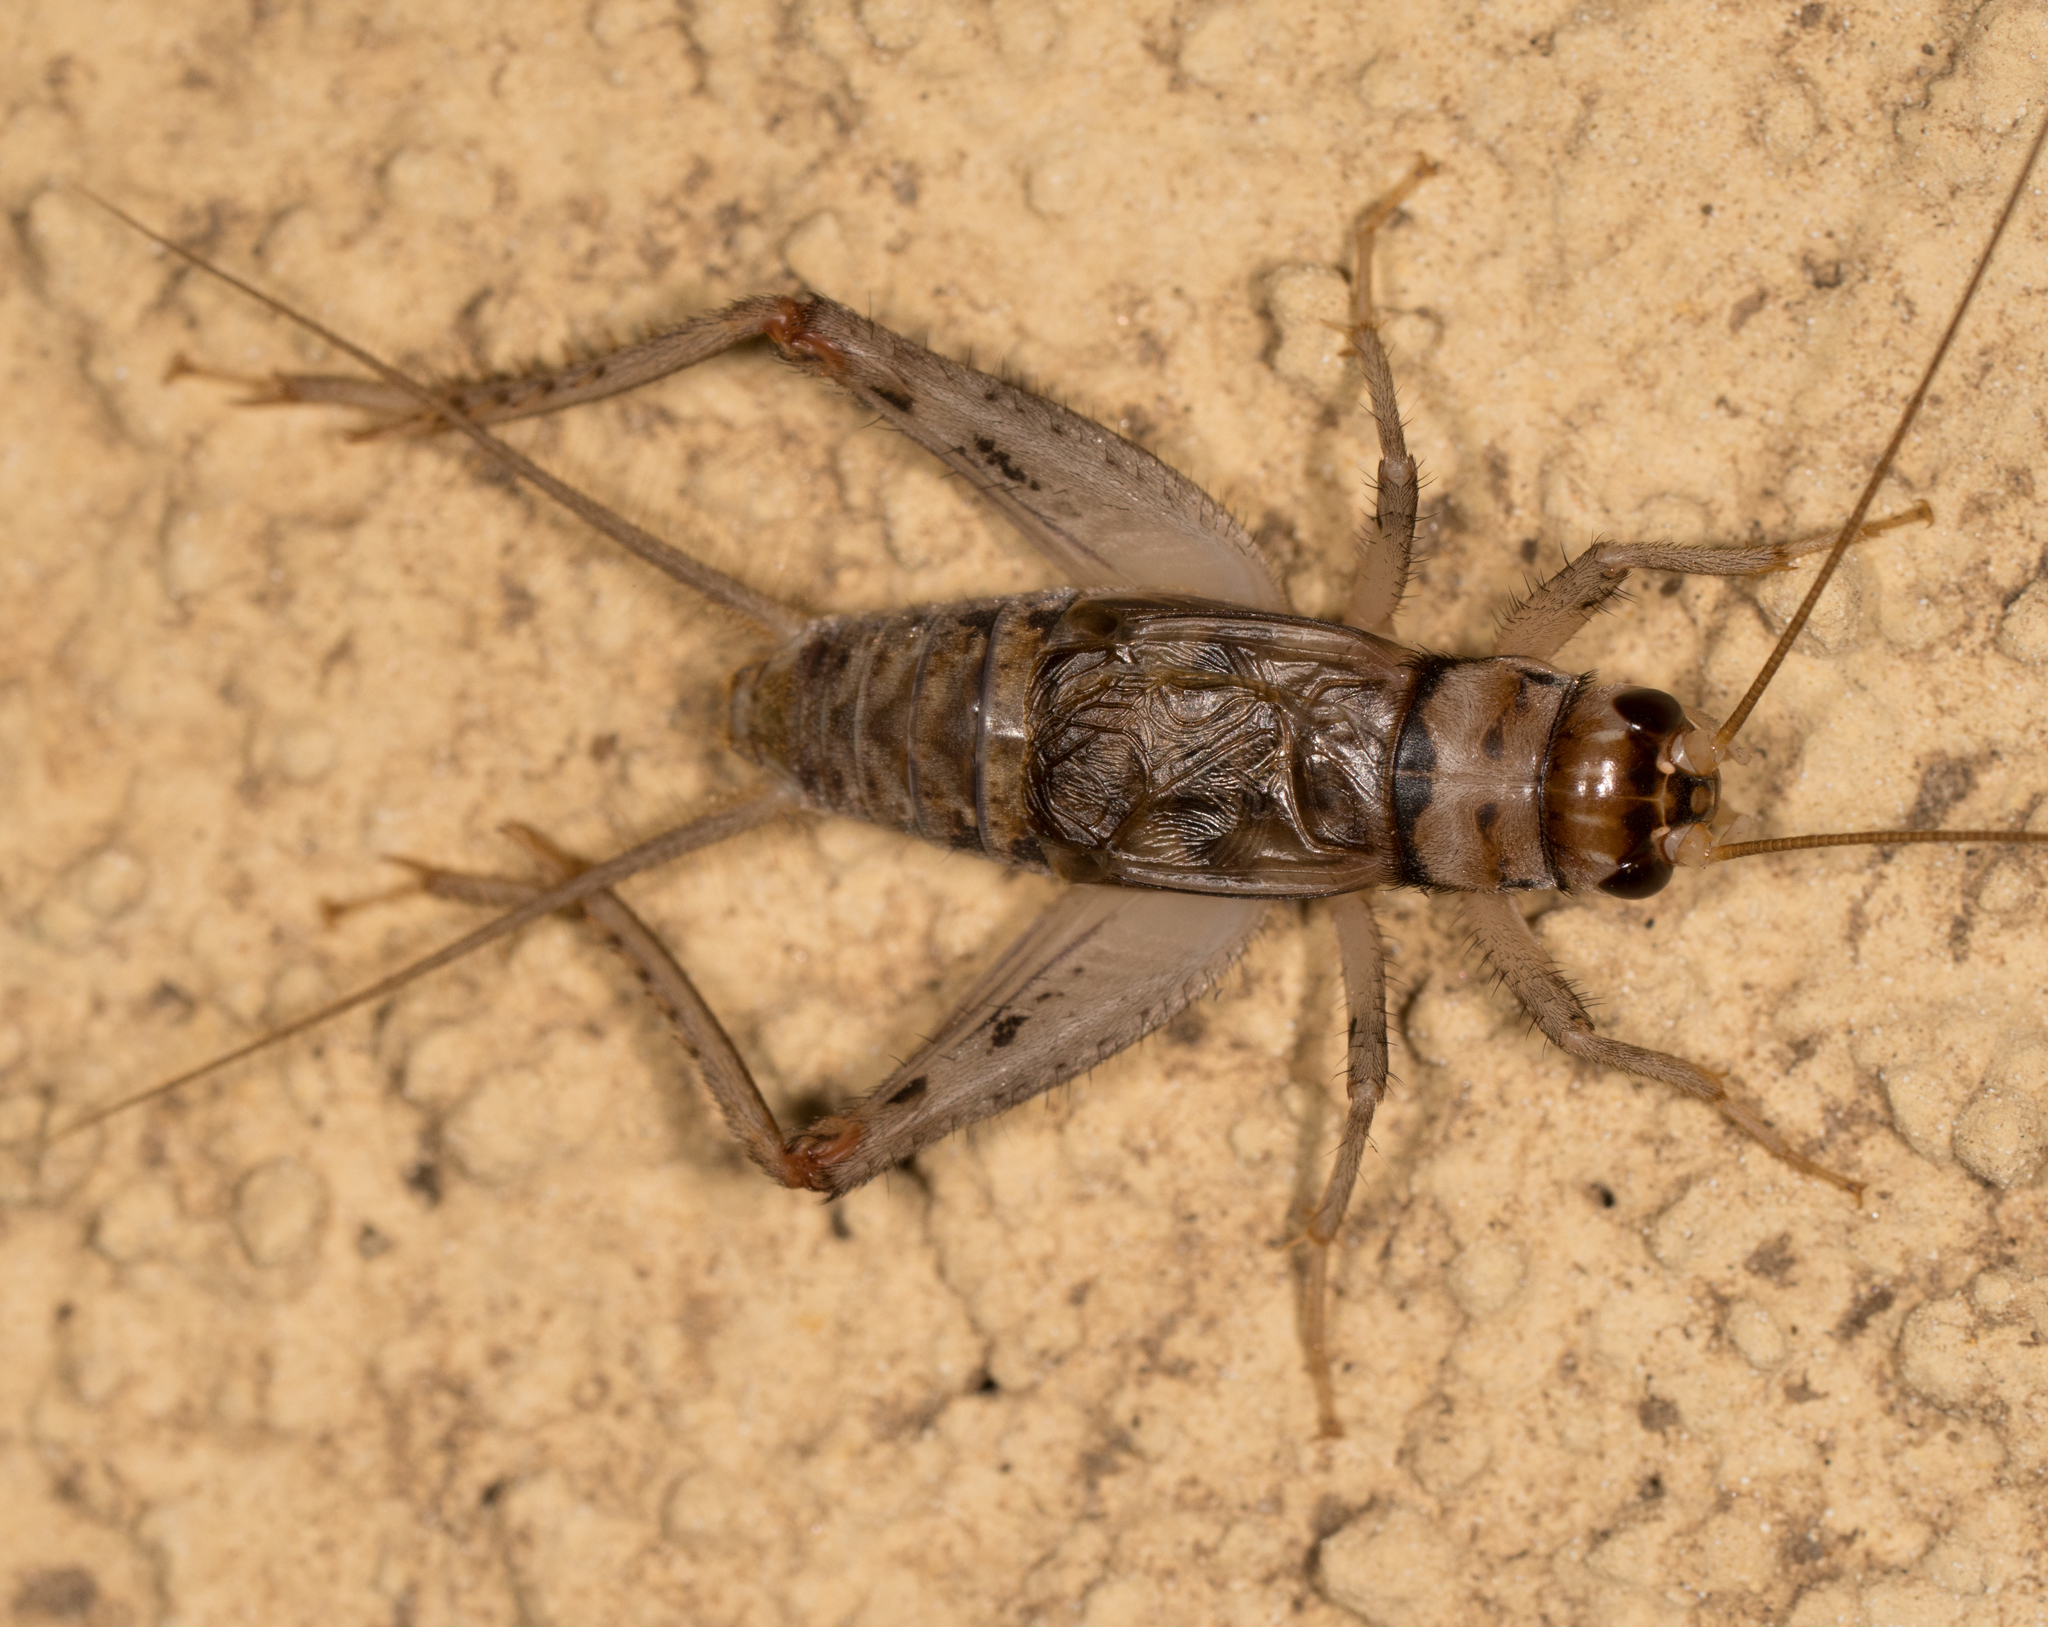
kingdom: Animalia
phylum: Arthropoda
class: Insecta
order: Orthoptera
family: Gryllidae
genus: Gryllodes
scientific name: Gryllodes sigillatus
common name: Tropical house cricket
